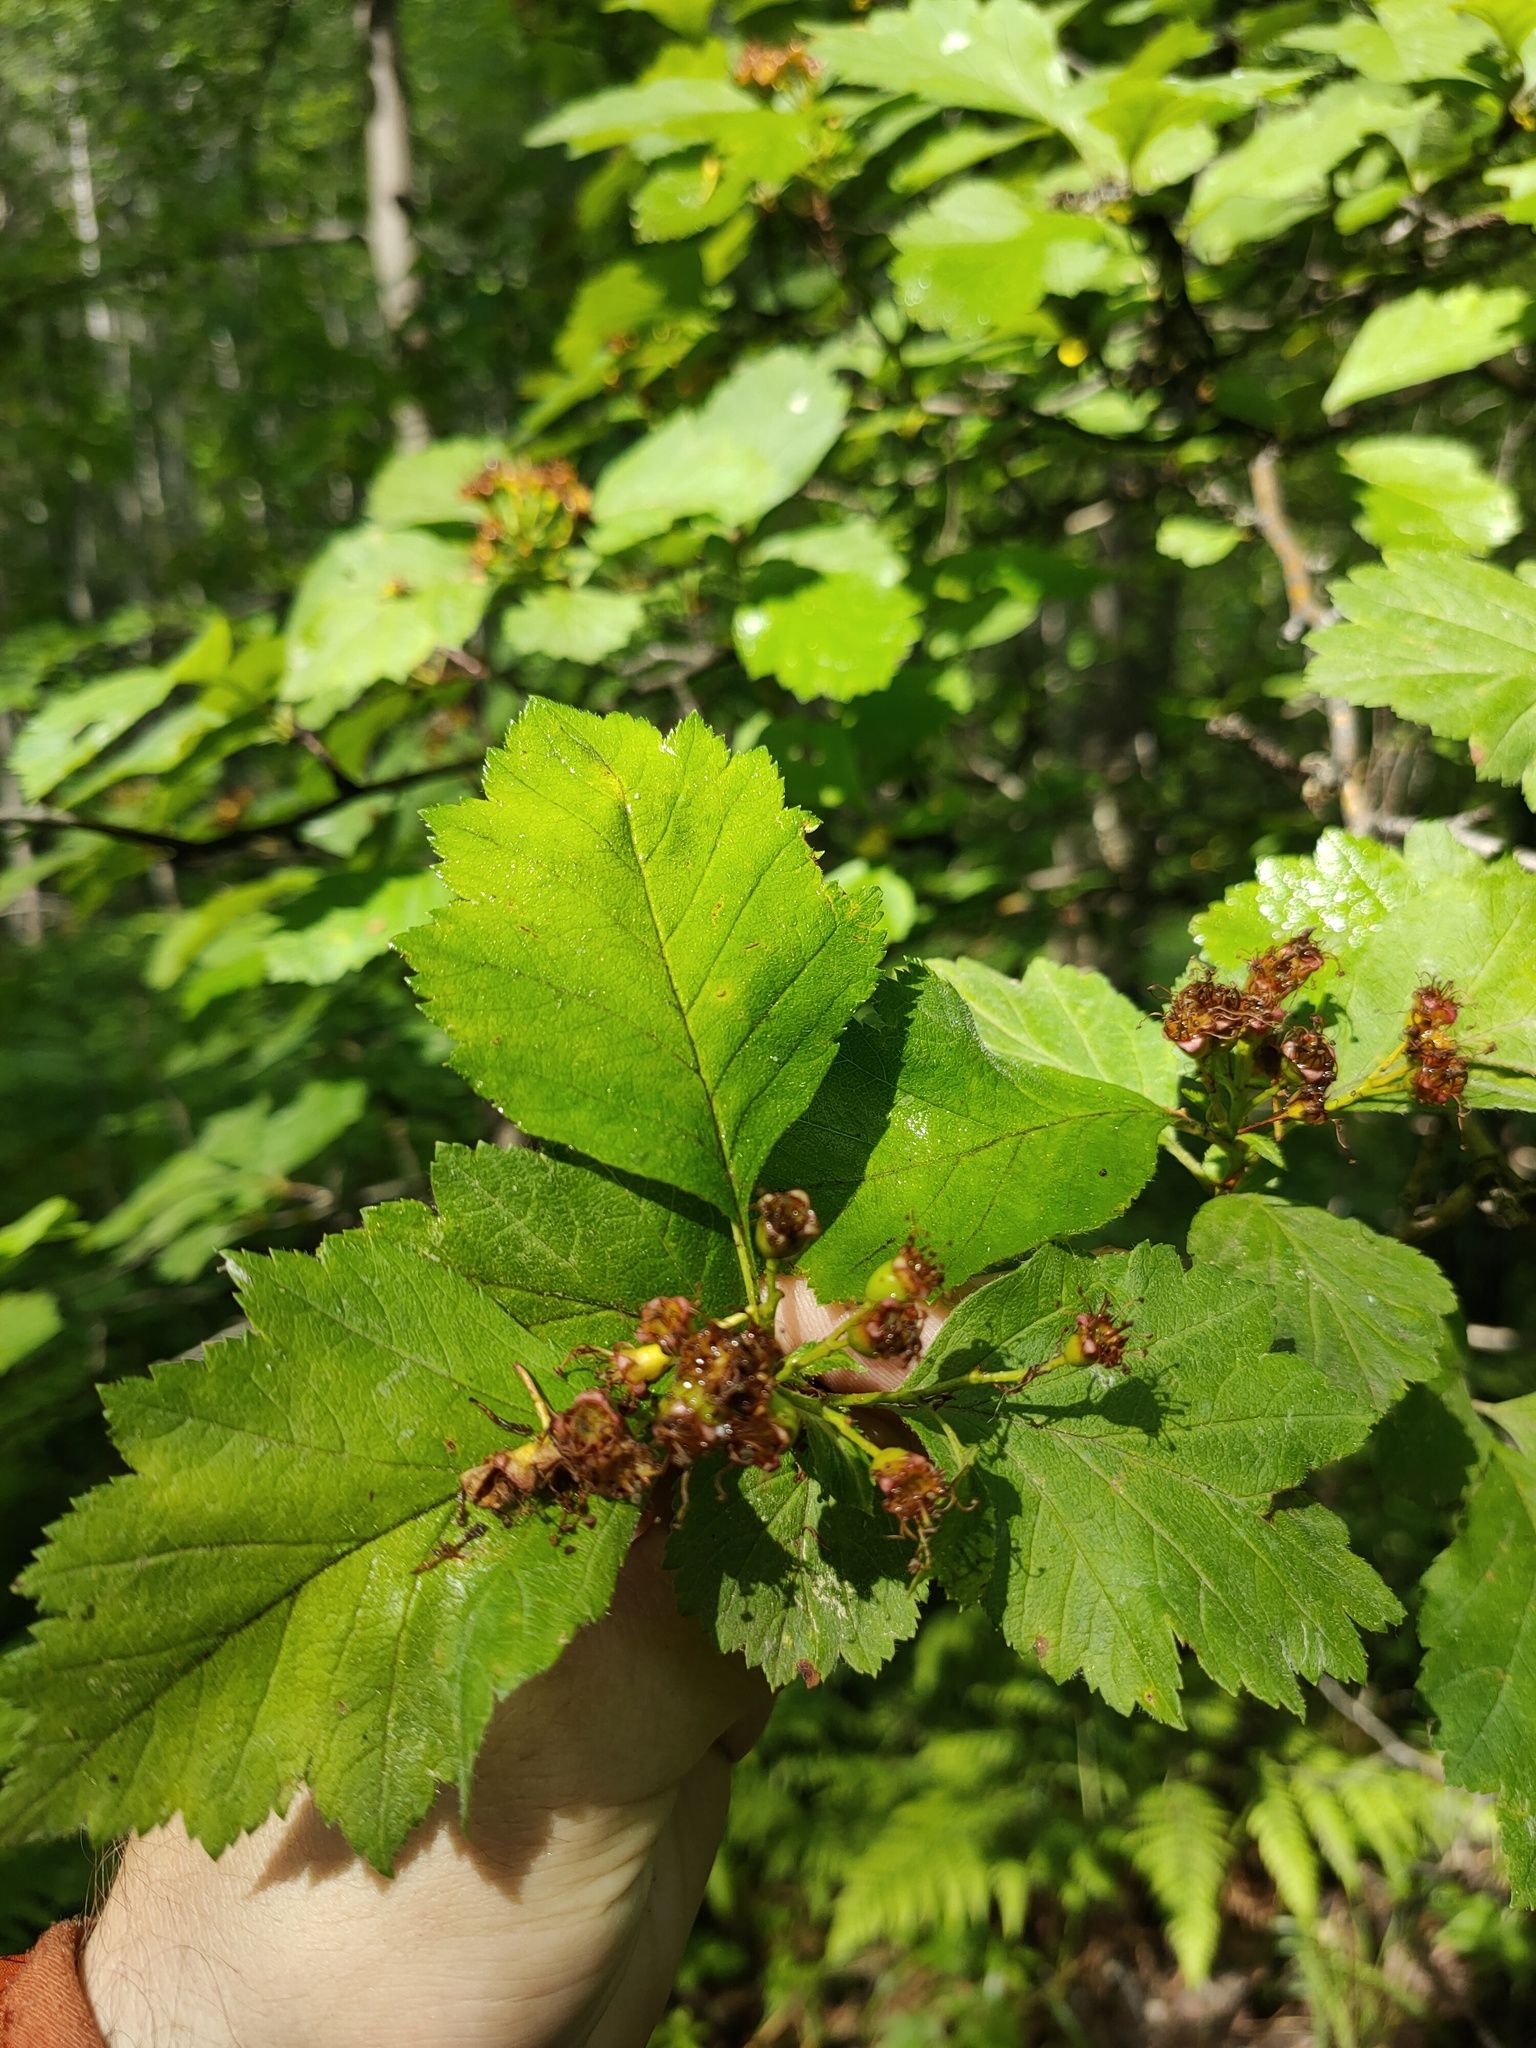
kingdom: Plantae
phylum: Tracheophyta
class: Magnoliopsida
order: Rosales
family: Rosaceae
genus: Crataegus
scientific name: Crataegus sanguinea
